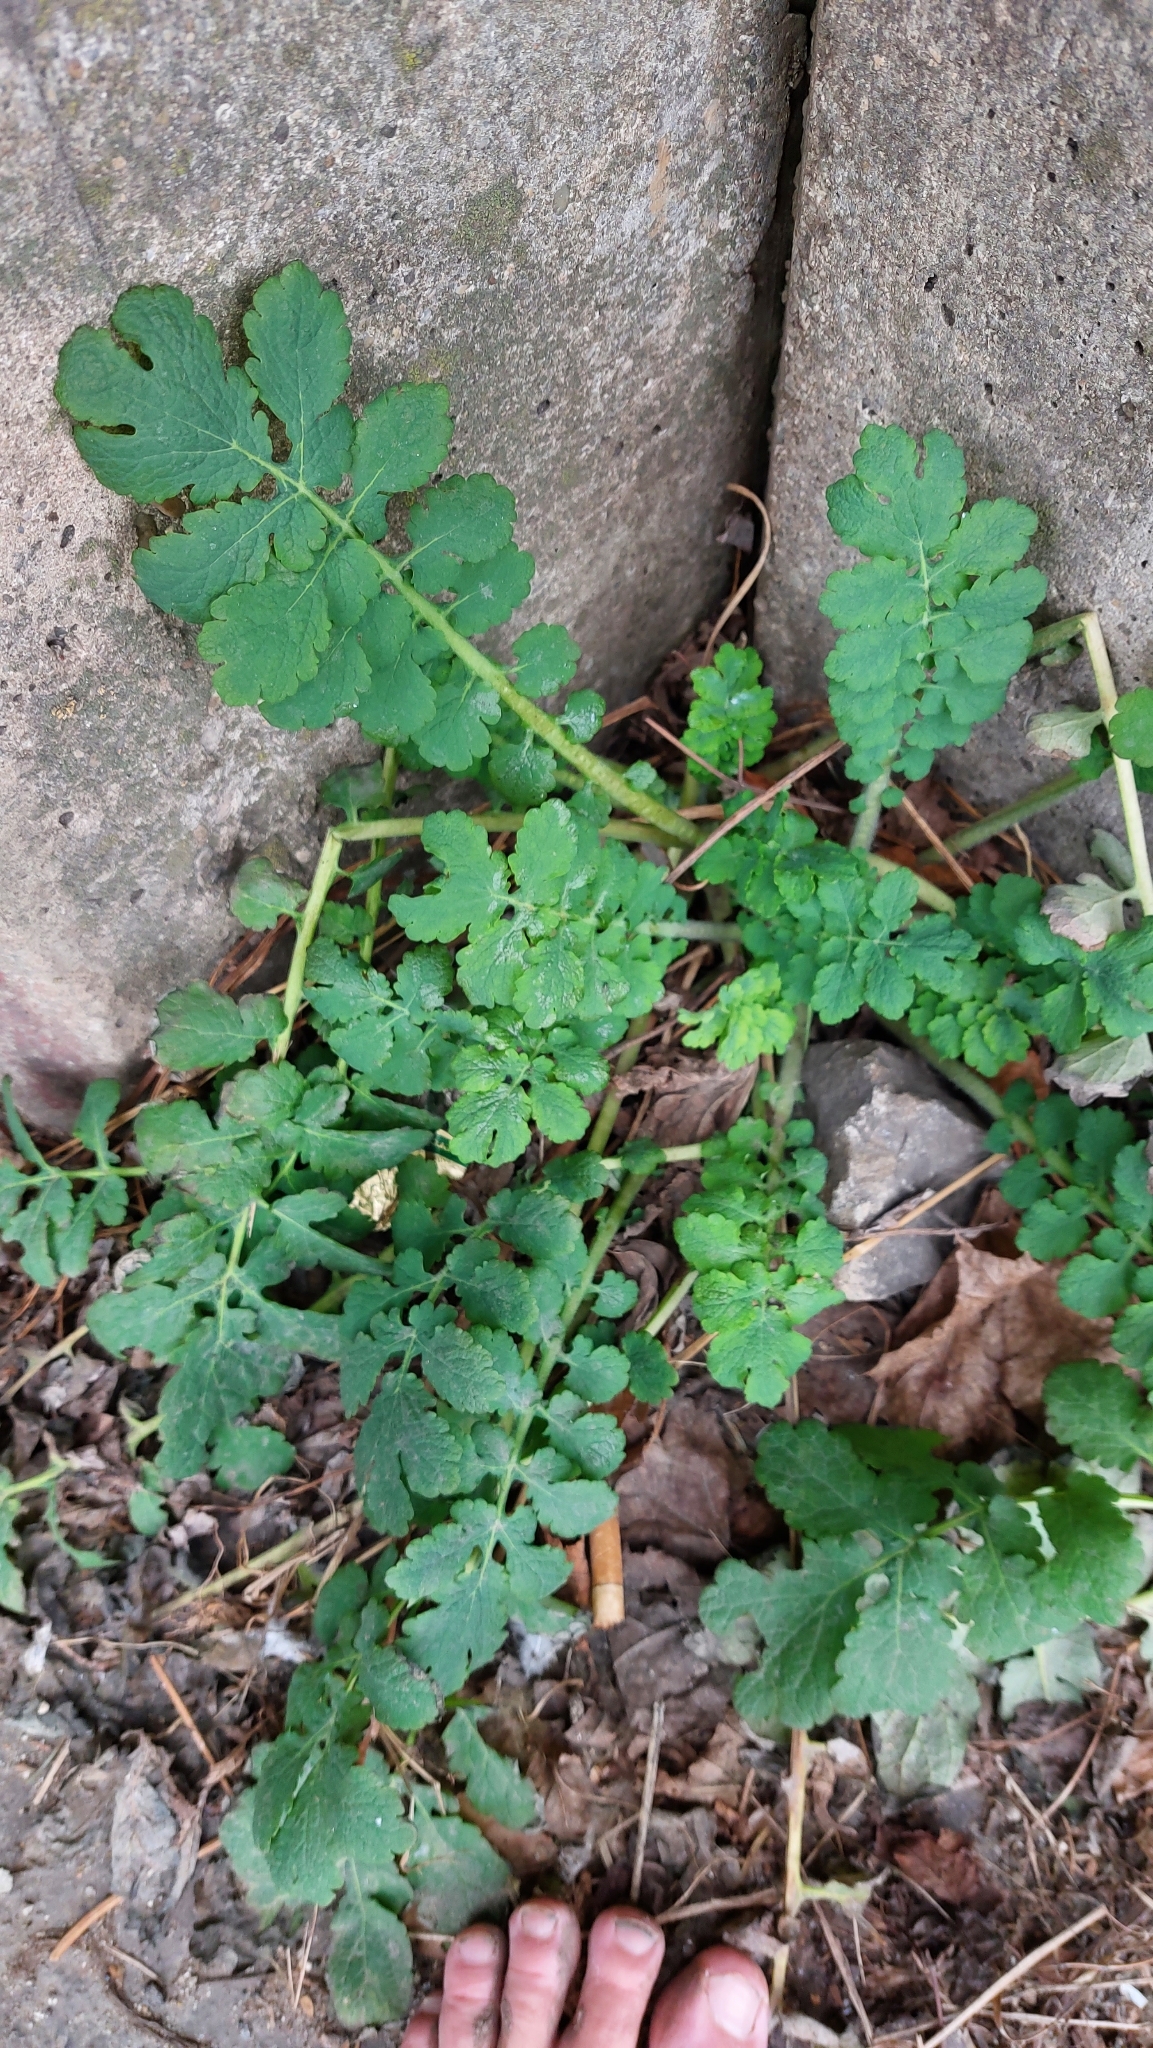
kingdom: Plantae
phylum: Tracheophyta
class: Magnoliopsida
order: Ranunculales
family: Papaveraceae
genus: Chelidonium
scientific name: Chelidonium majus
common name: Greater celandine
